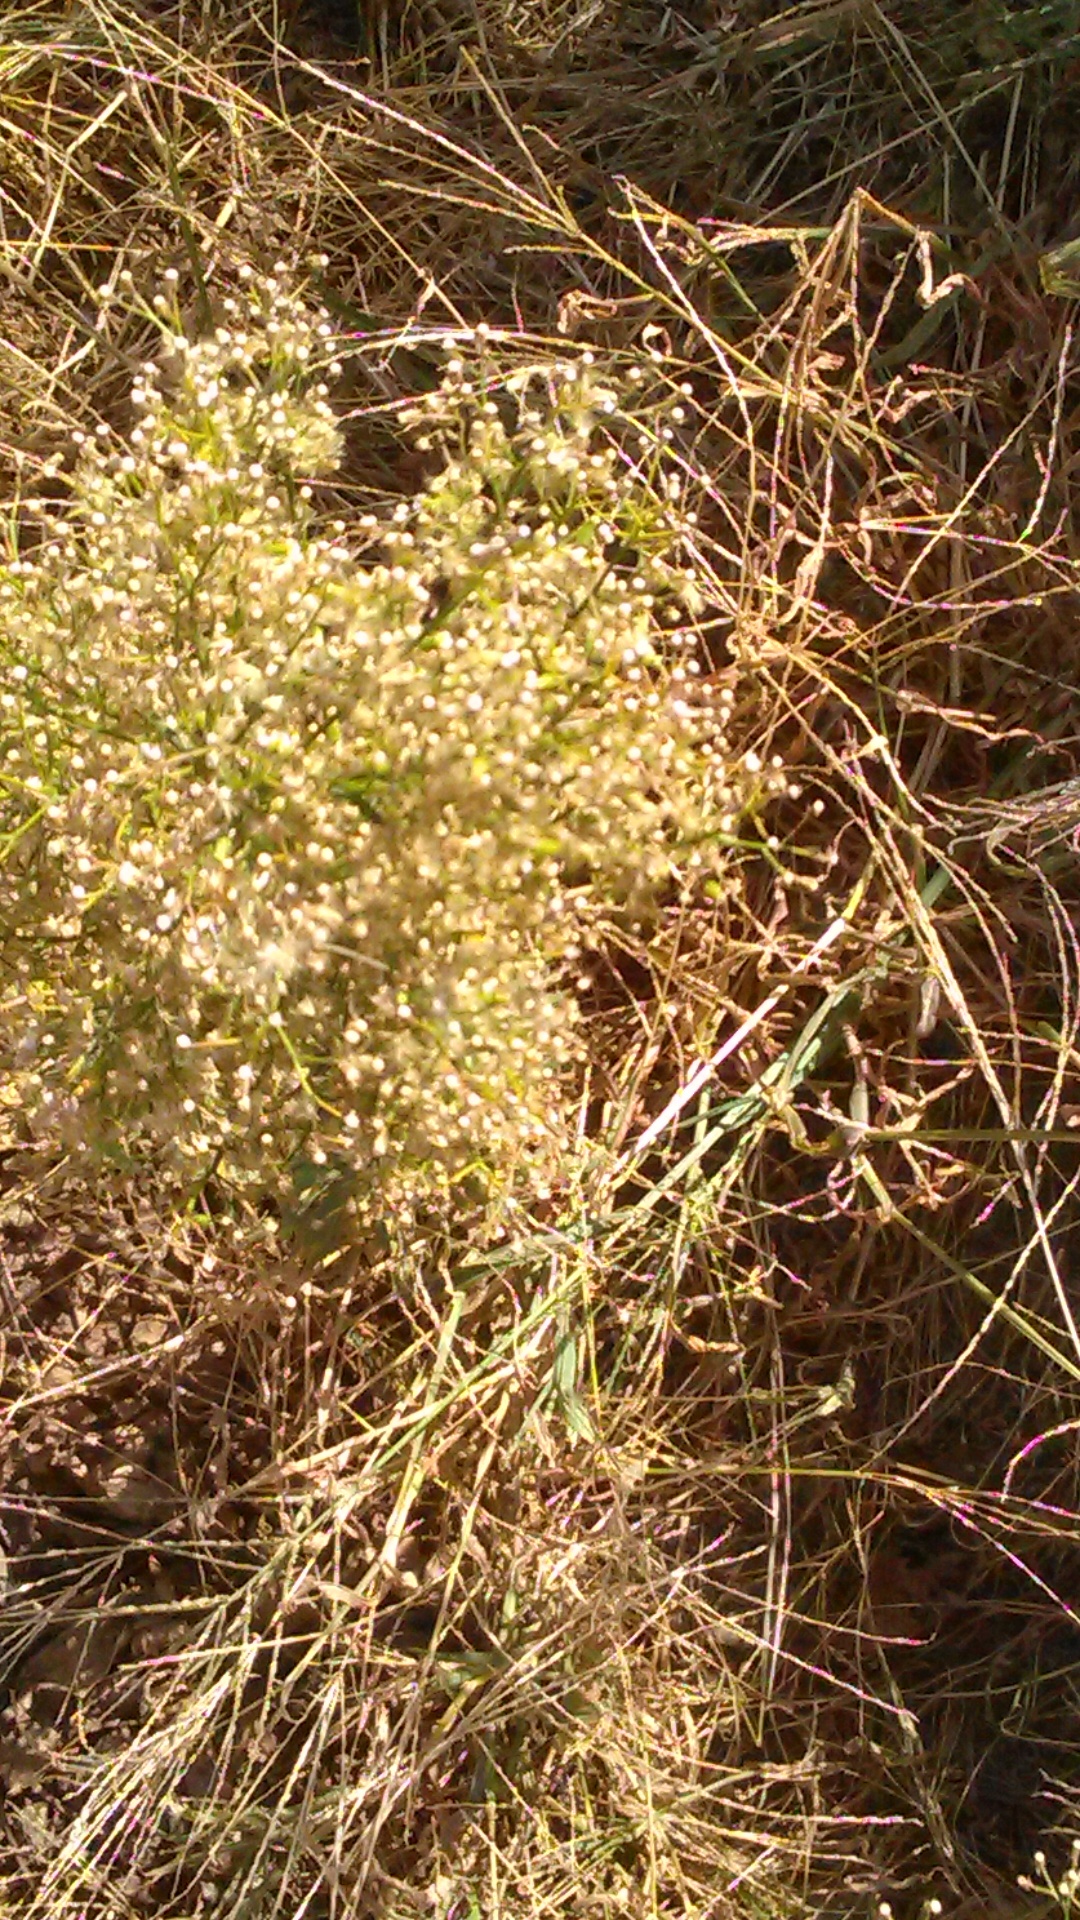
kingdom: Plantae
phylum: Tracheophyta
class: Magnoliopsida
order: Asterales
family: Asteraceae
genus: Erigeron
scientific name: Erigeron canadensis
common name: Canadian fleabane
